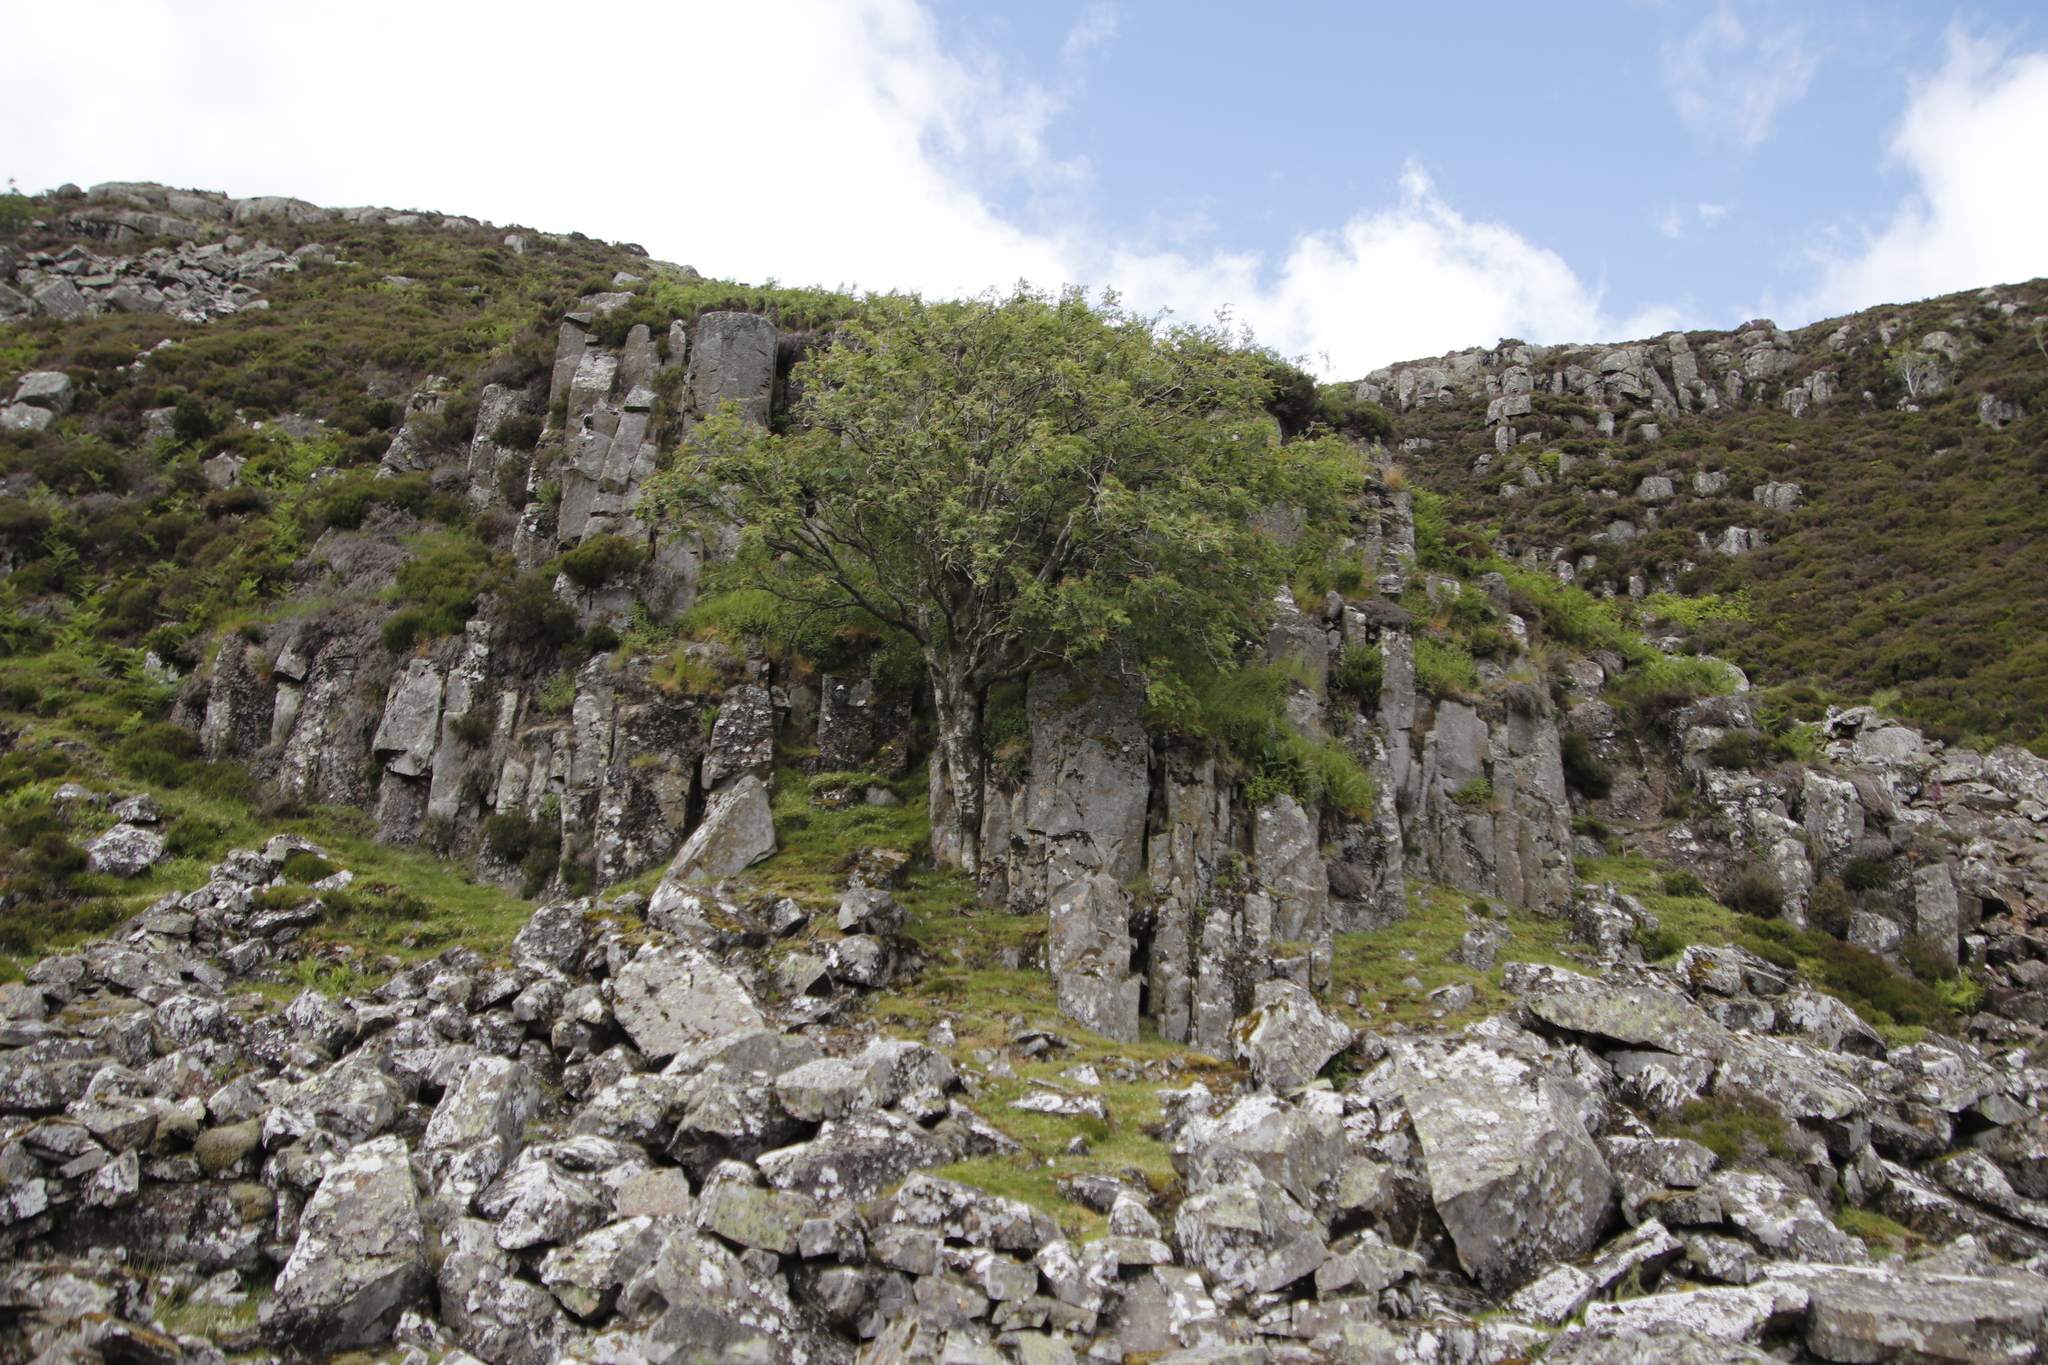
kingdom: Plantae
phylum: Tracheophyta
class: Magnoliopsida
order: Rosales
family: Rosaceae
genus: Sorbus
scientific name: Sorbus aucuparia
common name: Rowan
